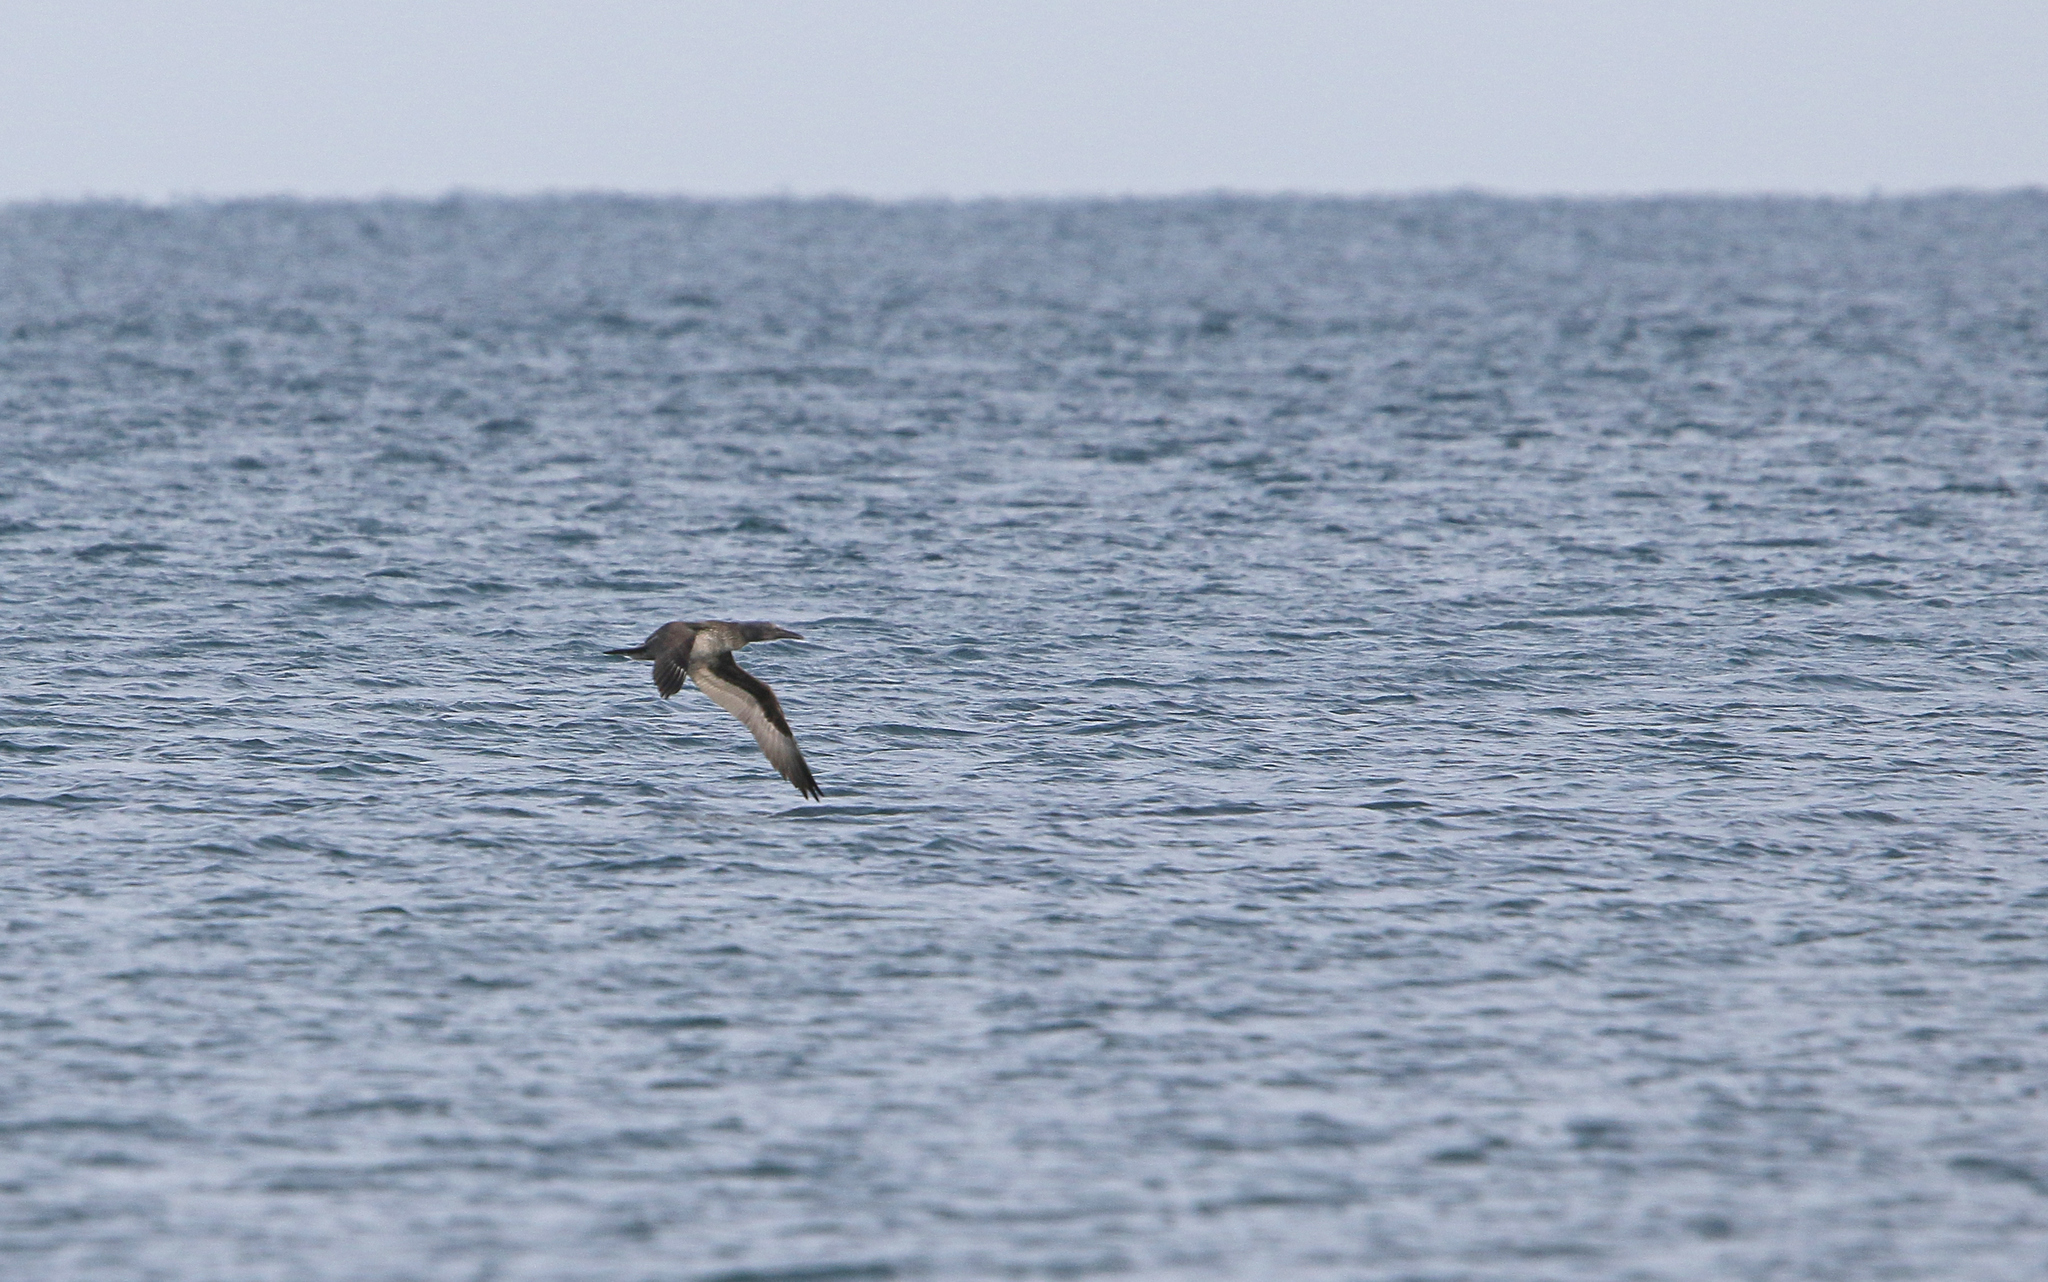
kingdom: Animalia
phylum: Chordata
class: Aves
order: Suliformes
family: Sulidae
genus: Morus
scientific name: Morus bassanus
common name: Northern gannet
